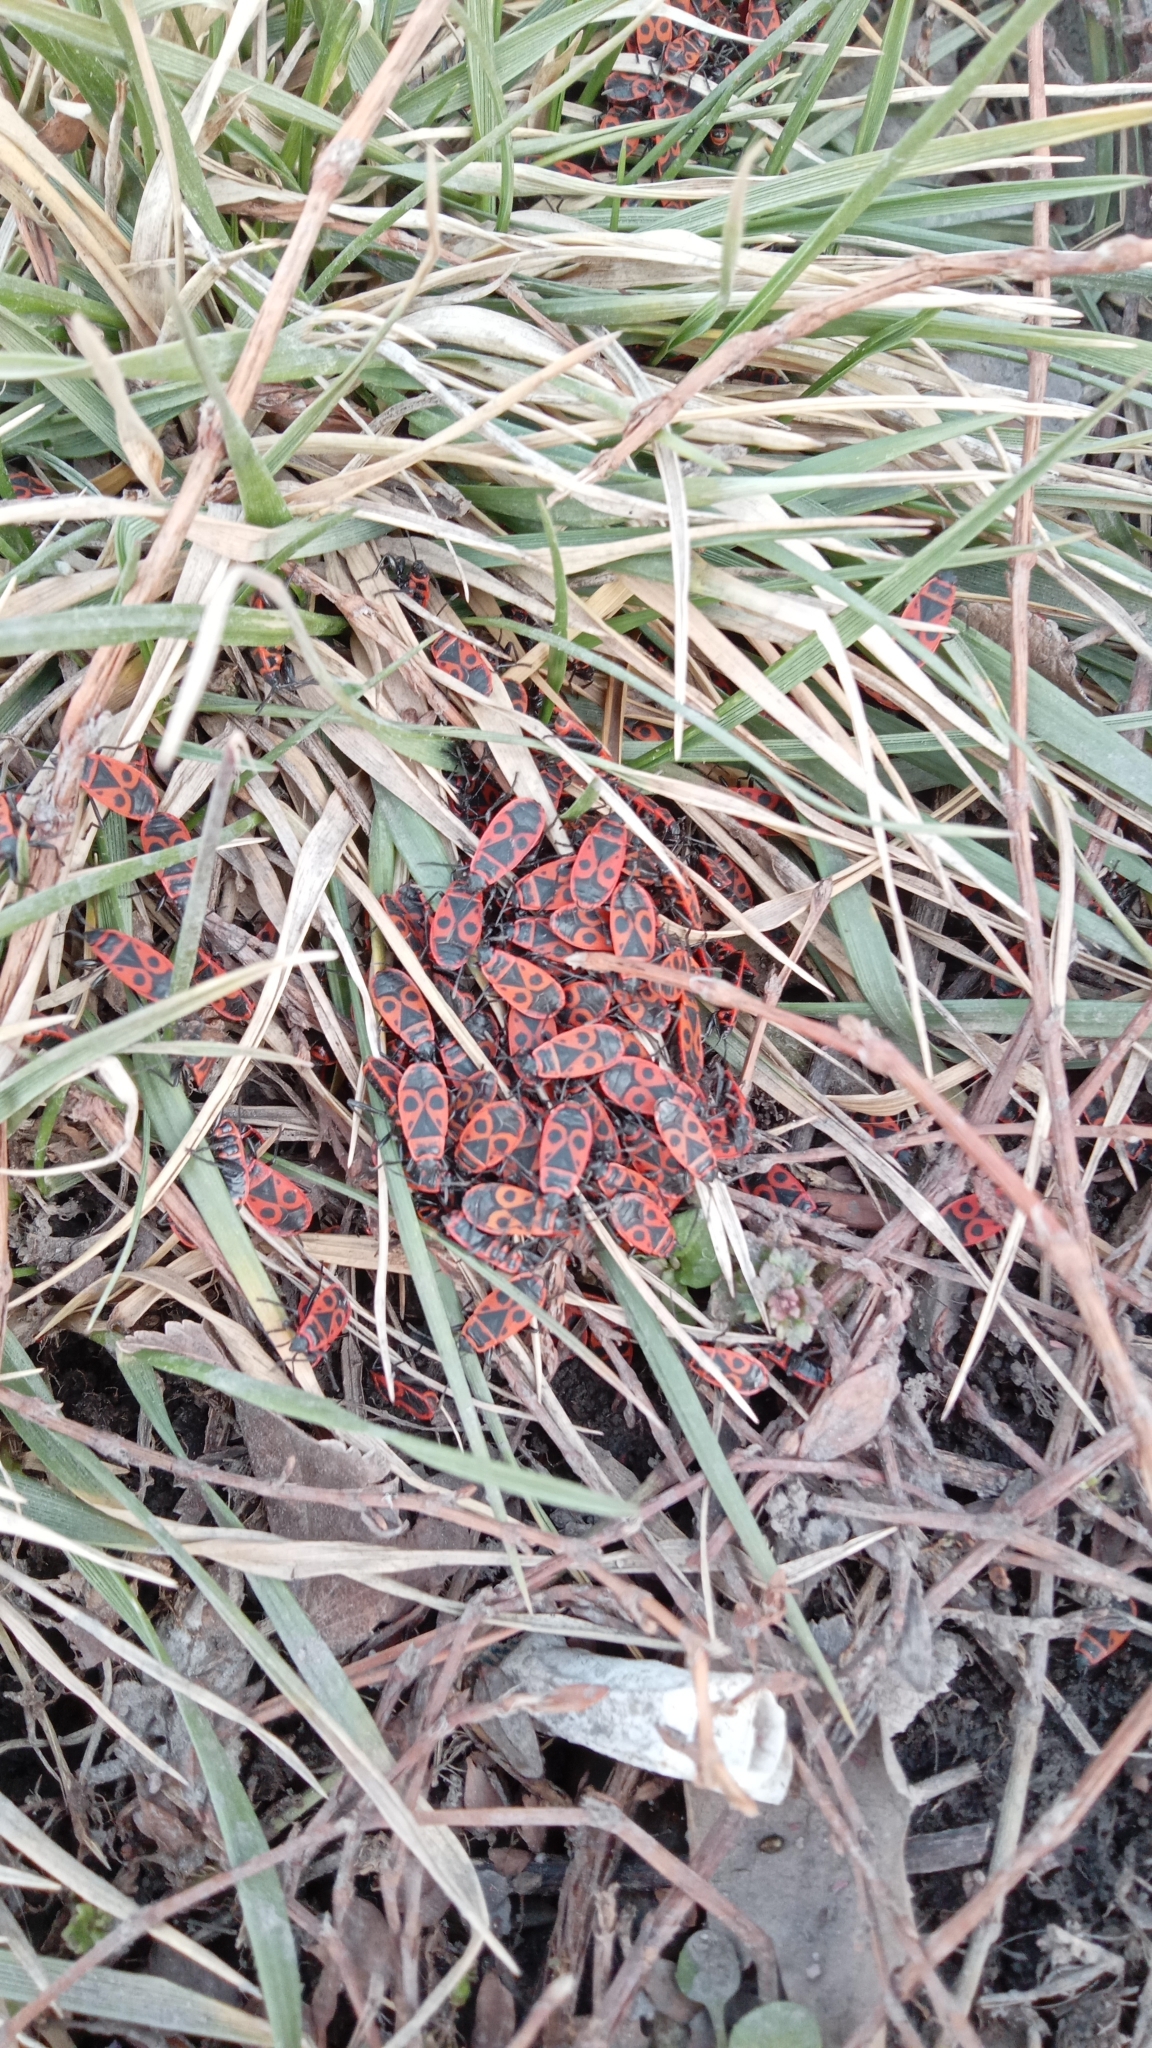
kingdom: Animalia
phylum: Arthropoda
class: Insecta
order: Hemiptera
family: Pyrrhocoridae
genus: Pyrrhocoris
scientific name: Pyrrhocoris apterus
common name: Firebug
